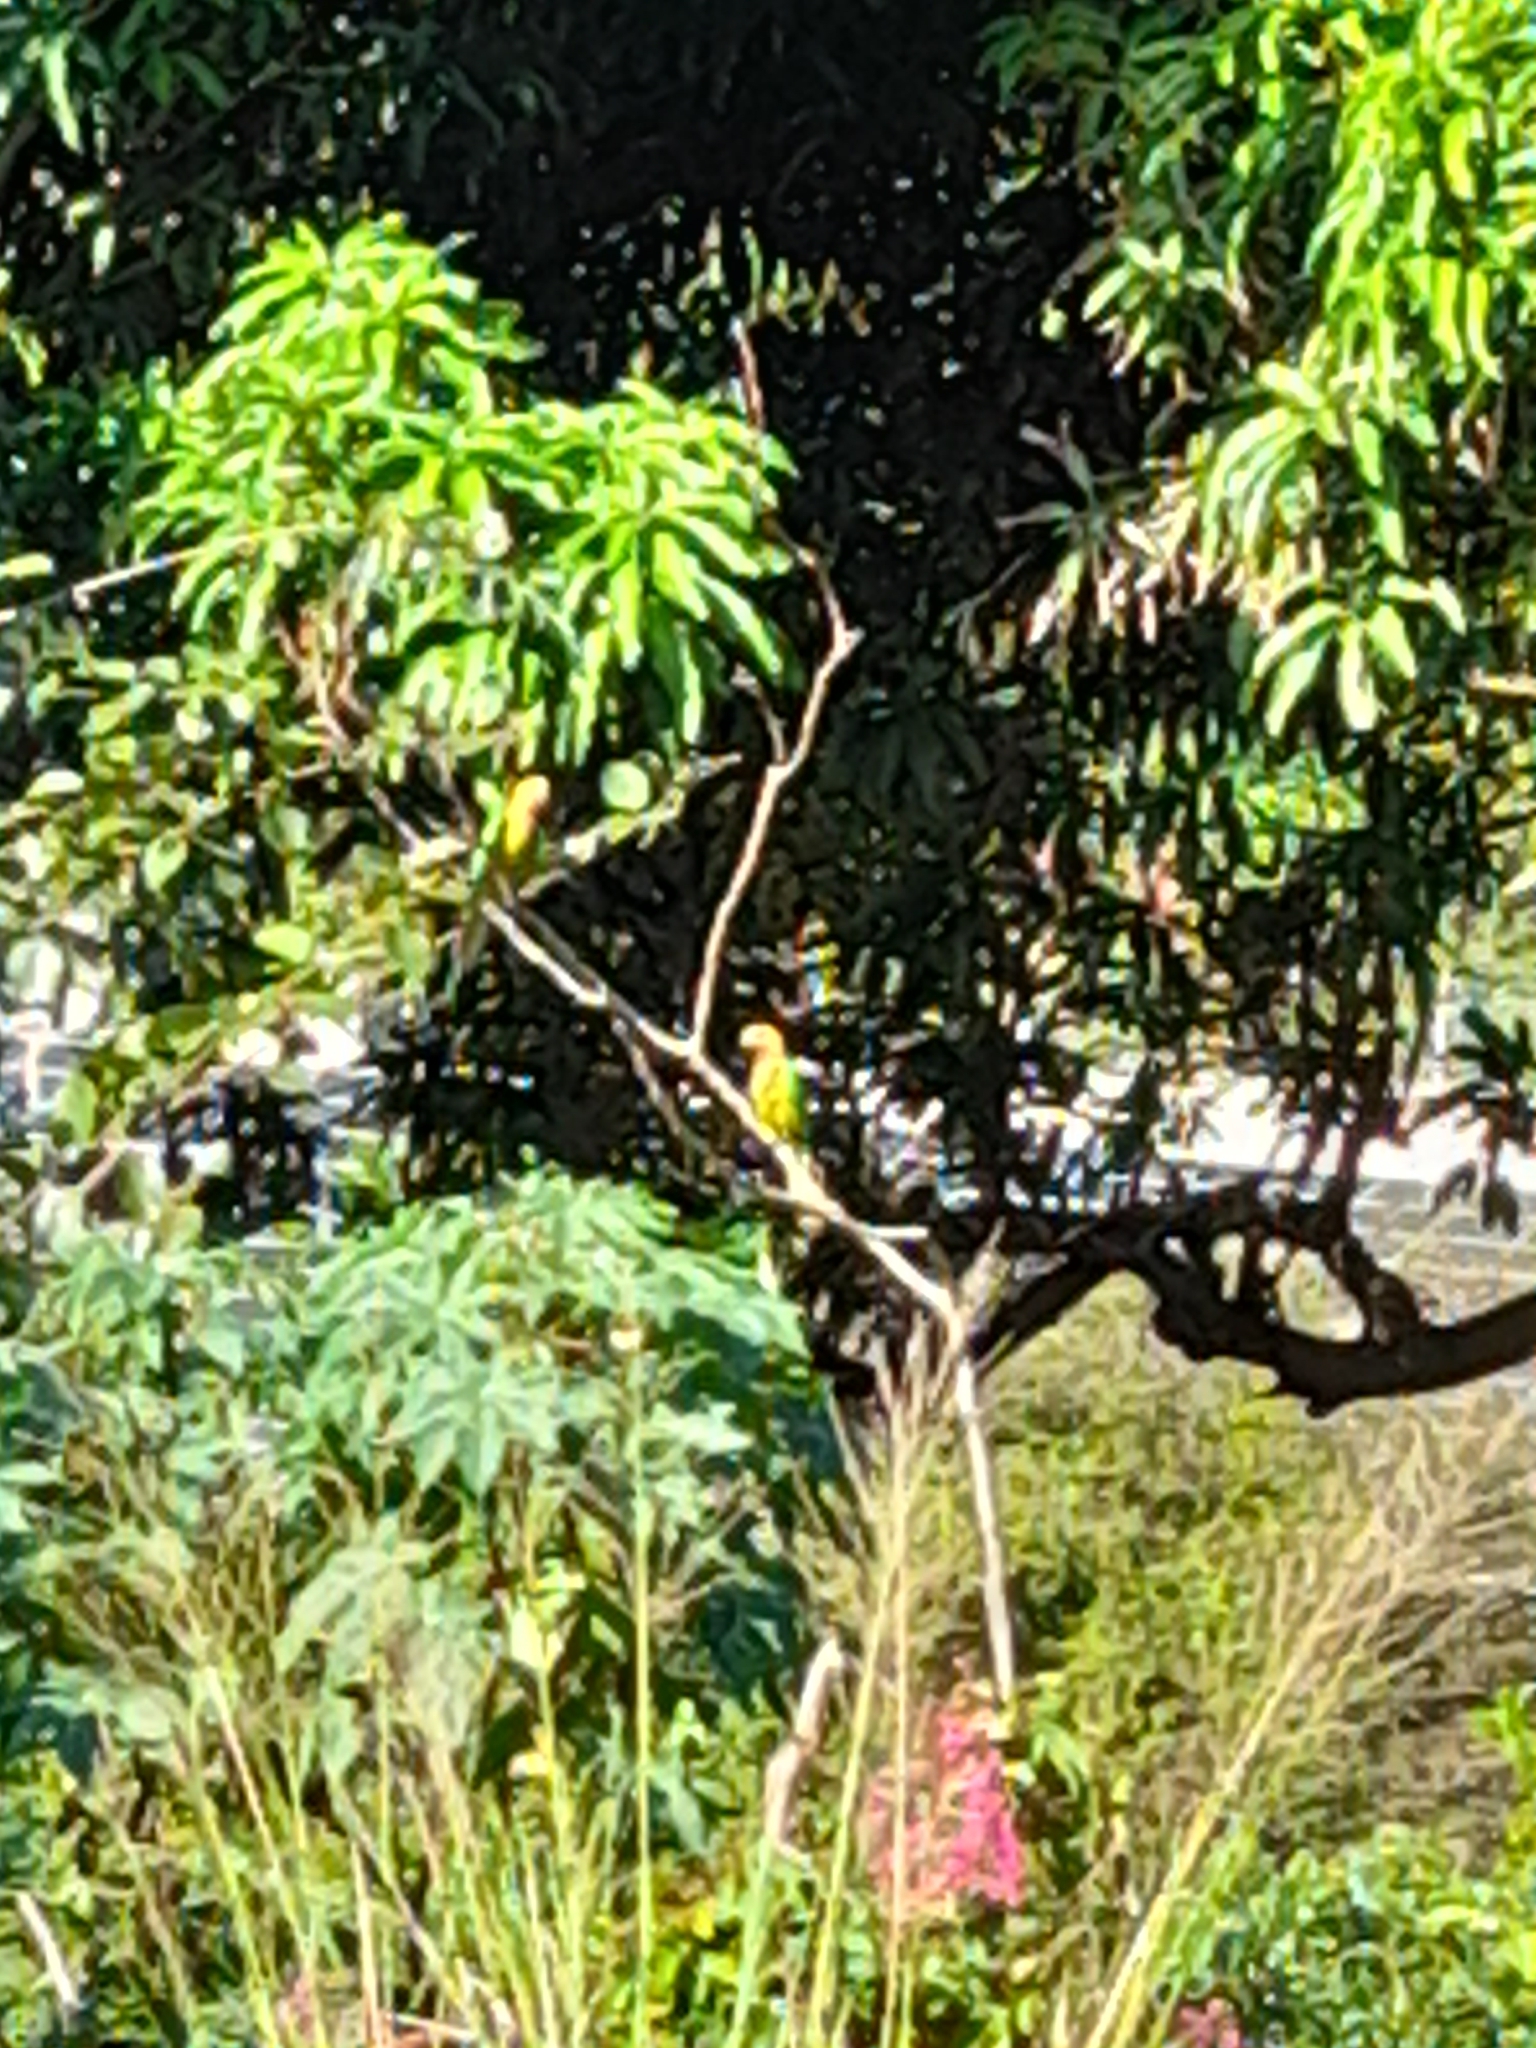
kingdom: Animalia
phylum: Chordata
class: Aves
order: Psittaciformes
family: Psittacidae
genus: Aratinga
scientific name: Aratinga pertinax
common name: Brown-throated parakeet
